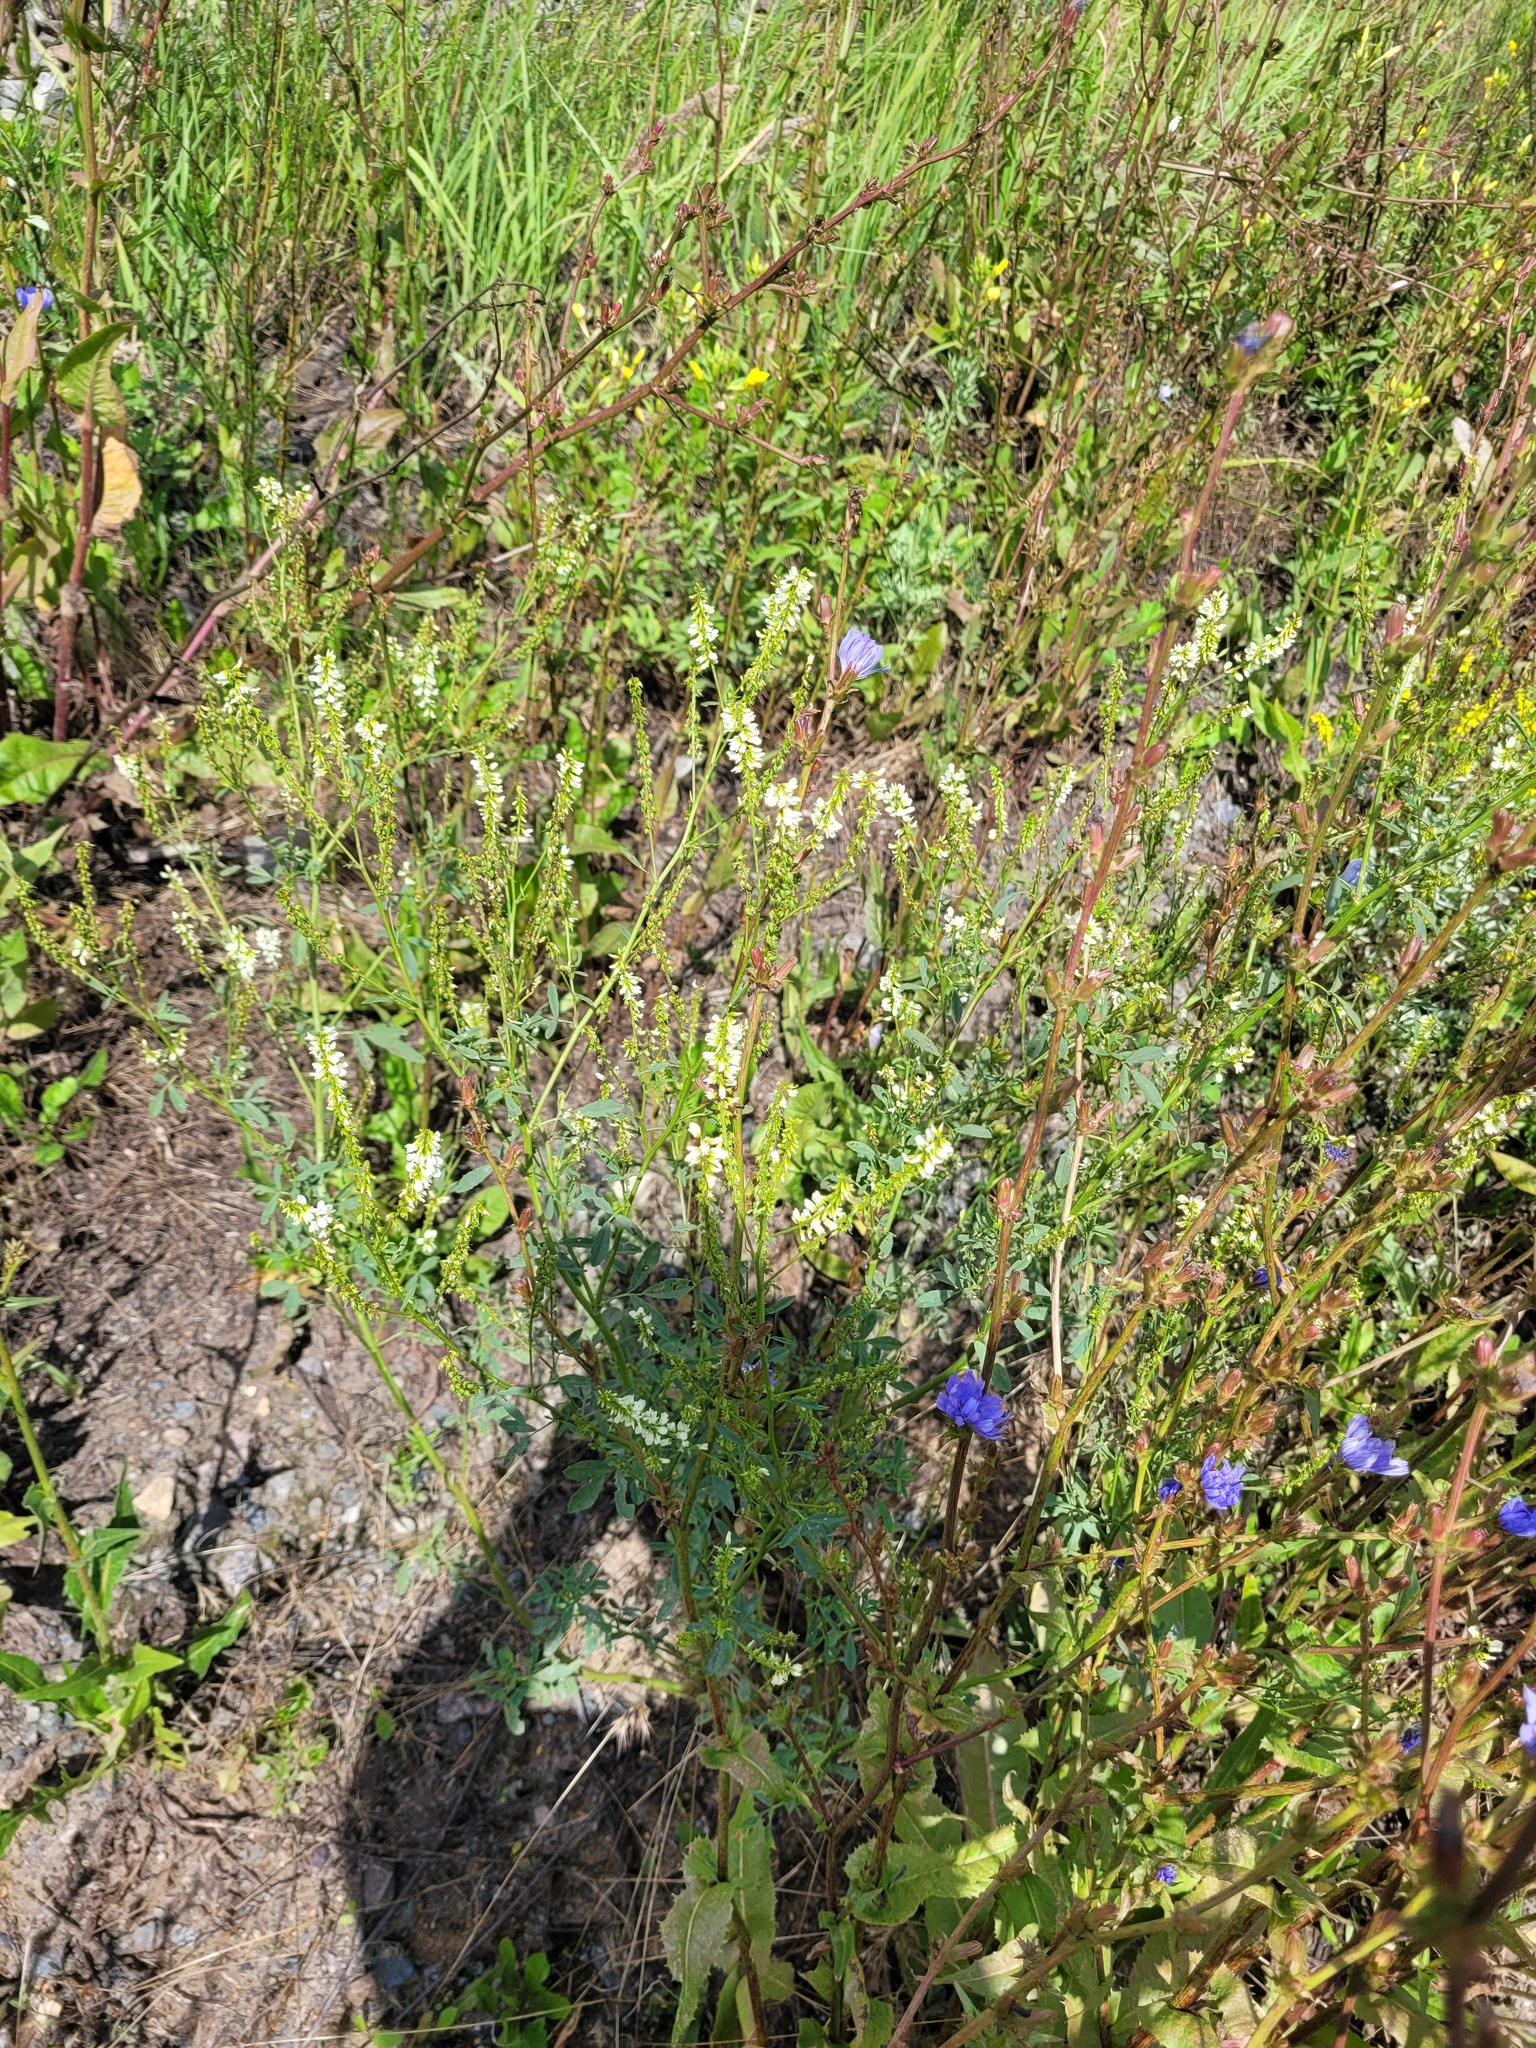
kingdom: Plantae
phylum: Tracheophyta
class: Magnoliopsida
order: Asterales
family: Asteraceae
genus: Cichorium
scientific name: Cichorium intybus
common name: Chicory
